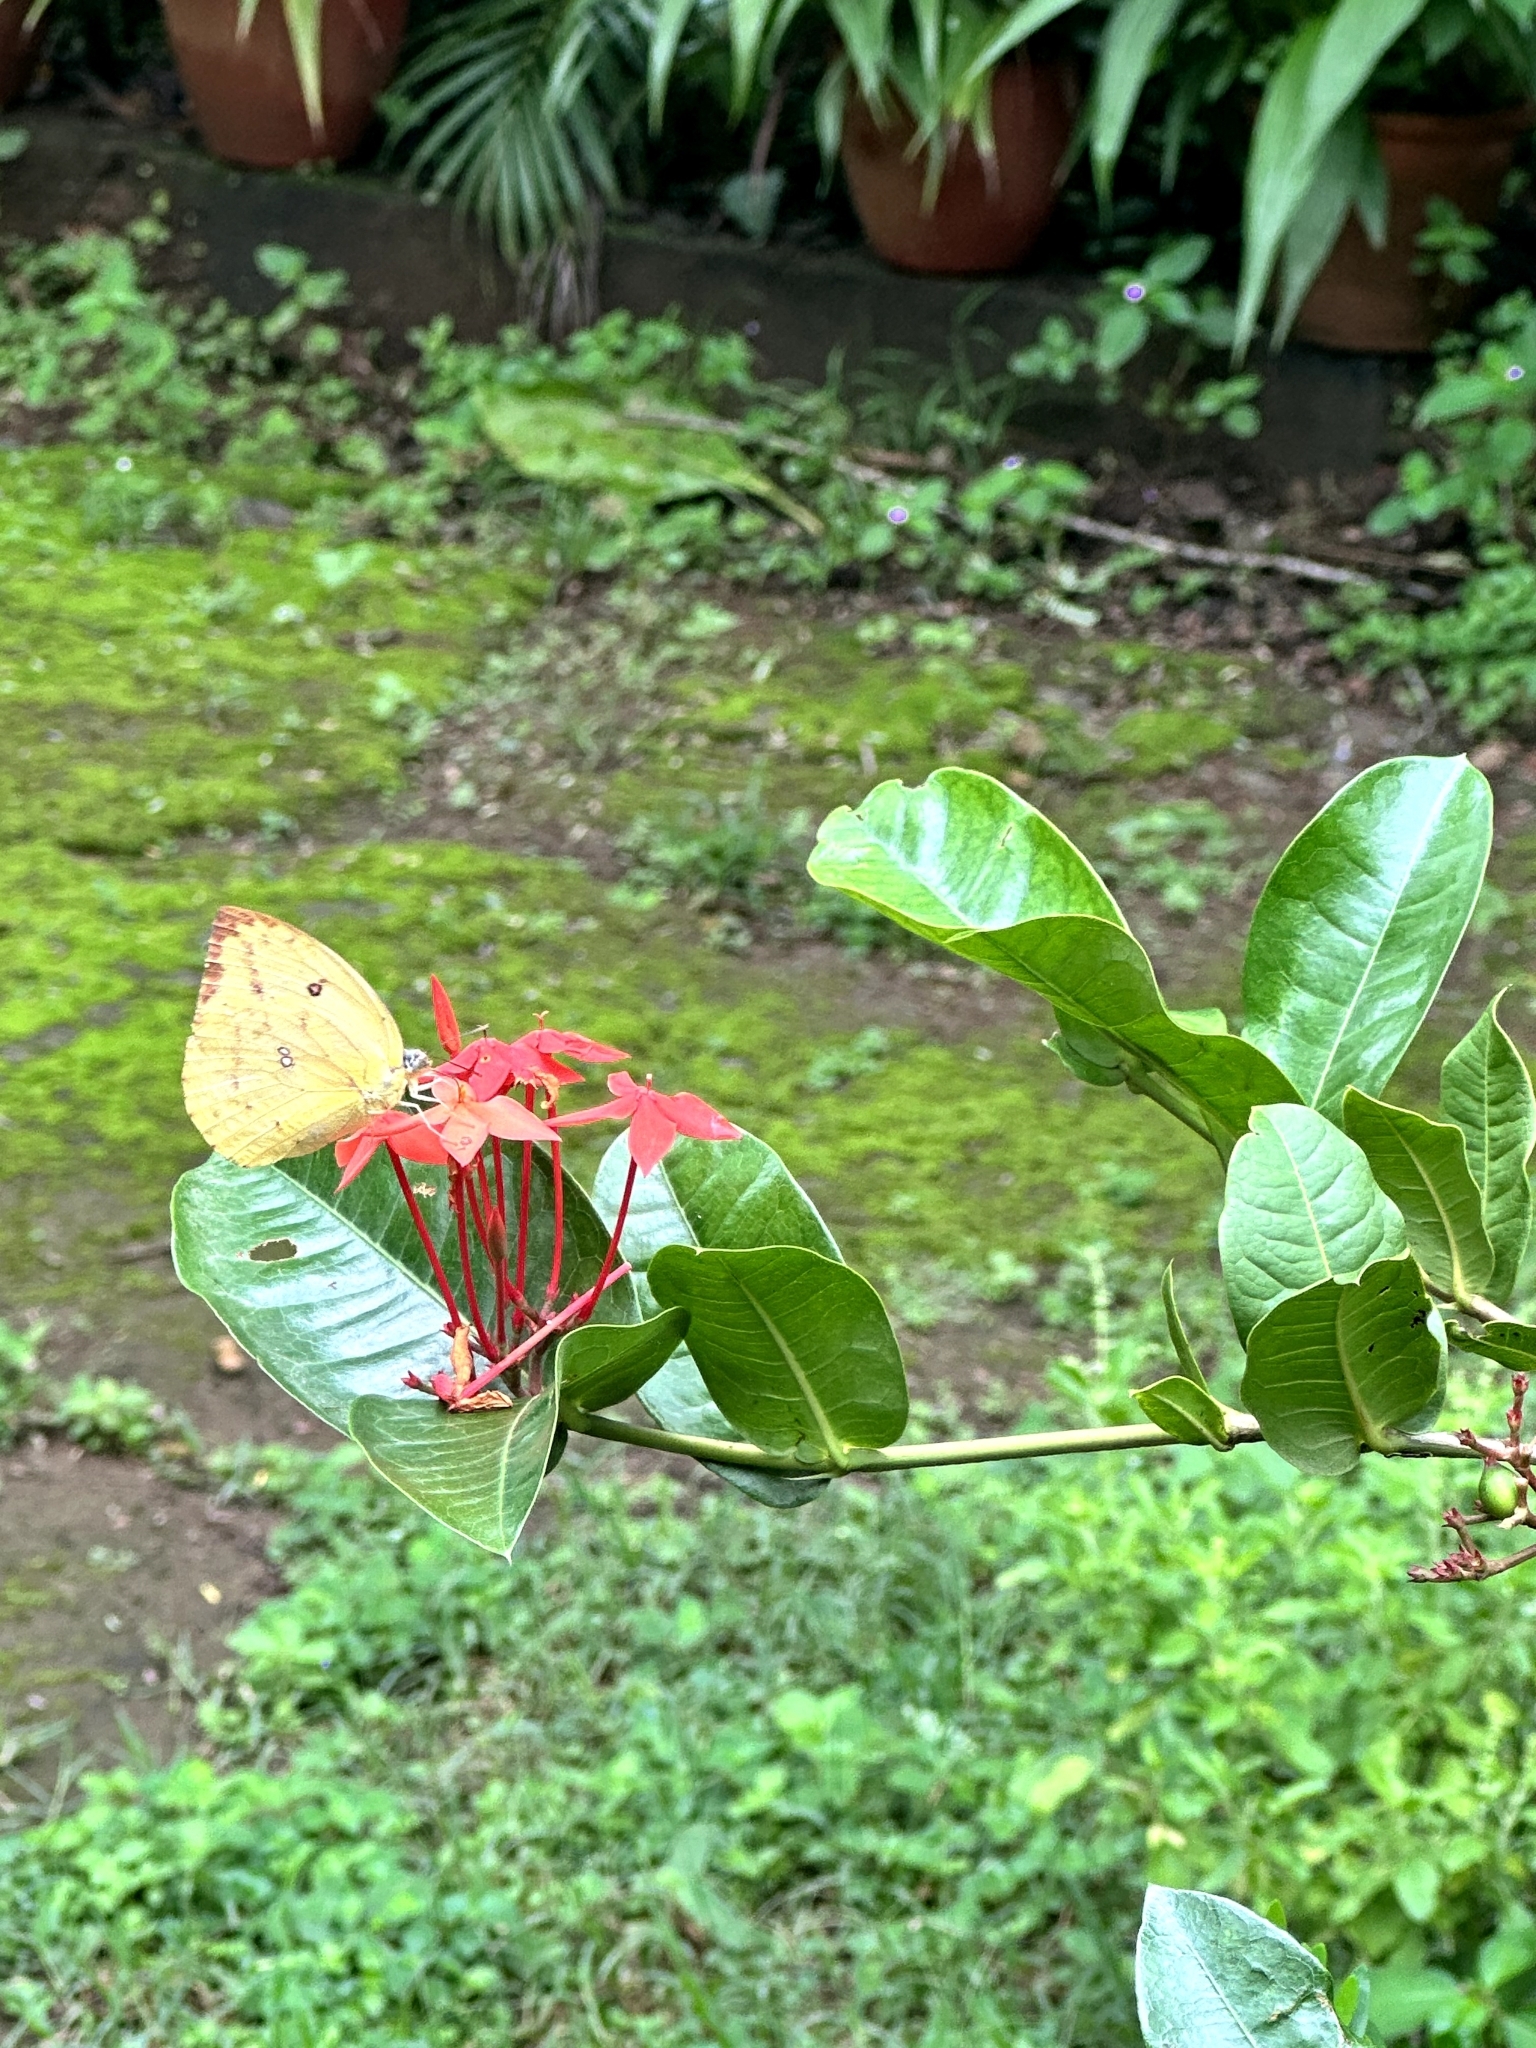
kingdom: Animalia
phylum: Arthropoda
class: Insecta
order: Lepidoptera
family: Pieridae
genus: Catopsilia
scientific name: Catopsilia pomona
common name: Common emigrant
